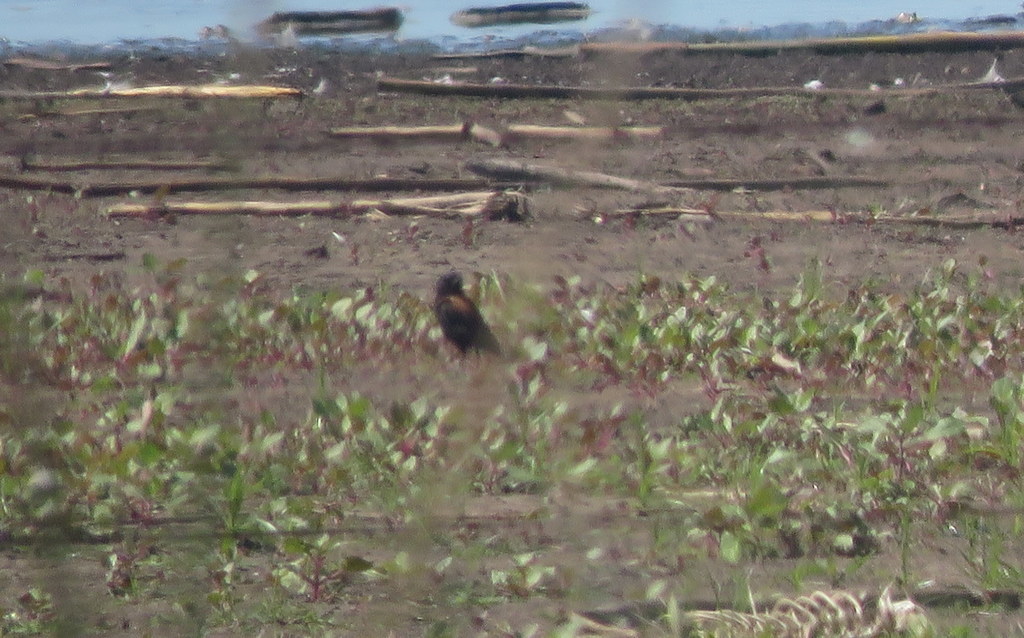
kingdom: Animalia
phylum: Chordata
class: Aves
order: Passeriformes
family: Tyrannidae
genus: Lessonia
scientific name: Lessonia rufa
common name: Austral negrito
